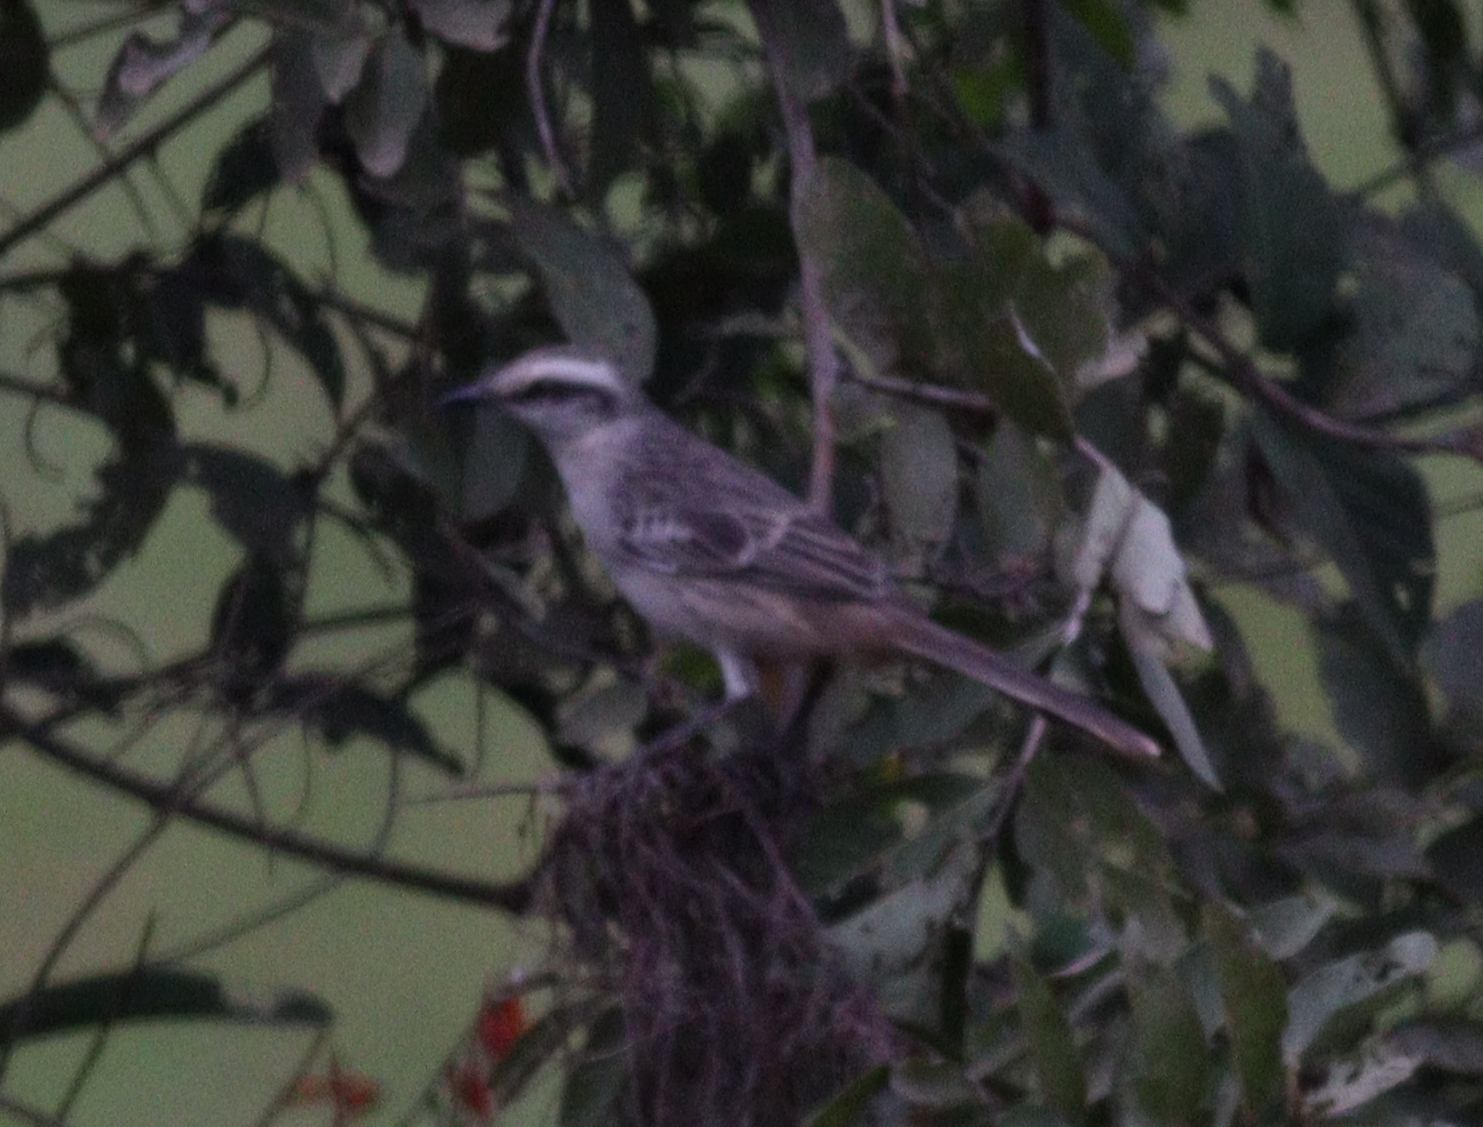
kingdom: Animalia
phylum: Chordata
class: Aves
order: Passeriformes
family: Mimidae
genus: Mimus
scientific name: Mimus saturninus
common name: Chalk-browed mockingbird
